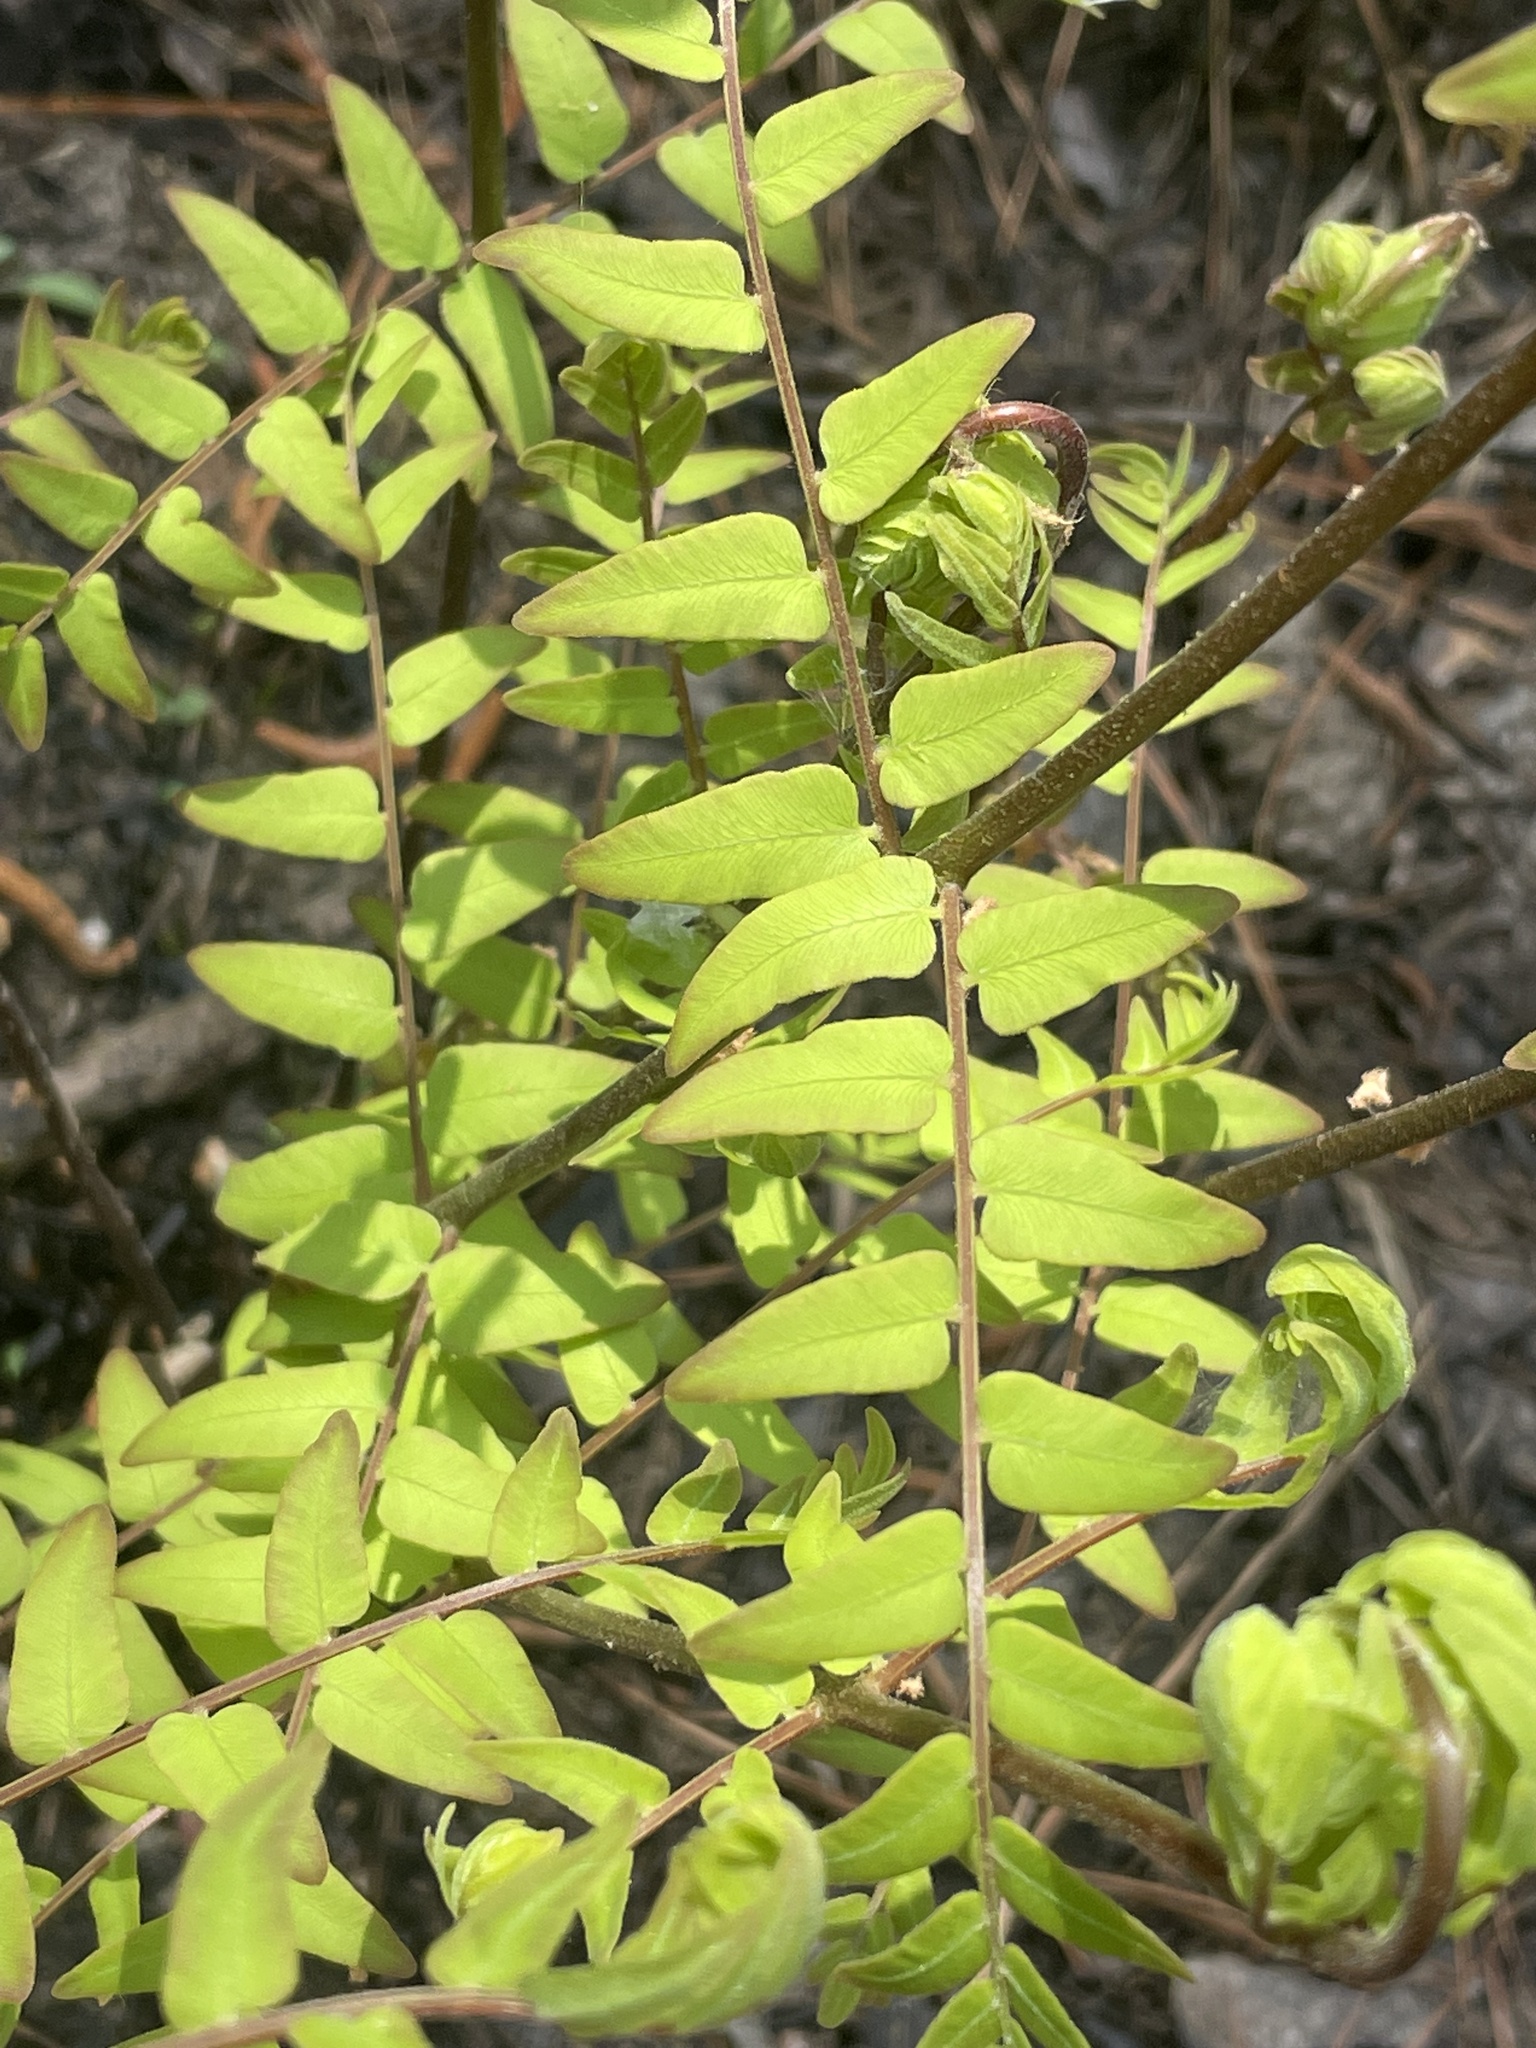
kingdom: Plantae
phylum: Tracheophyta
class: Polypodiopsida
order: Osmundales
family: Osmundaceae
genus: Osmunda
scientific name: Osmunda spectabilis
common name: American royal fern
